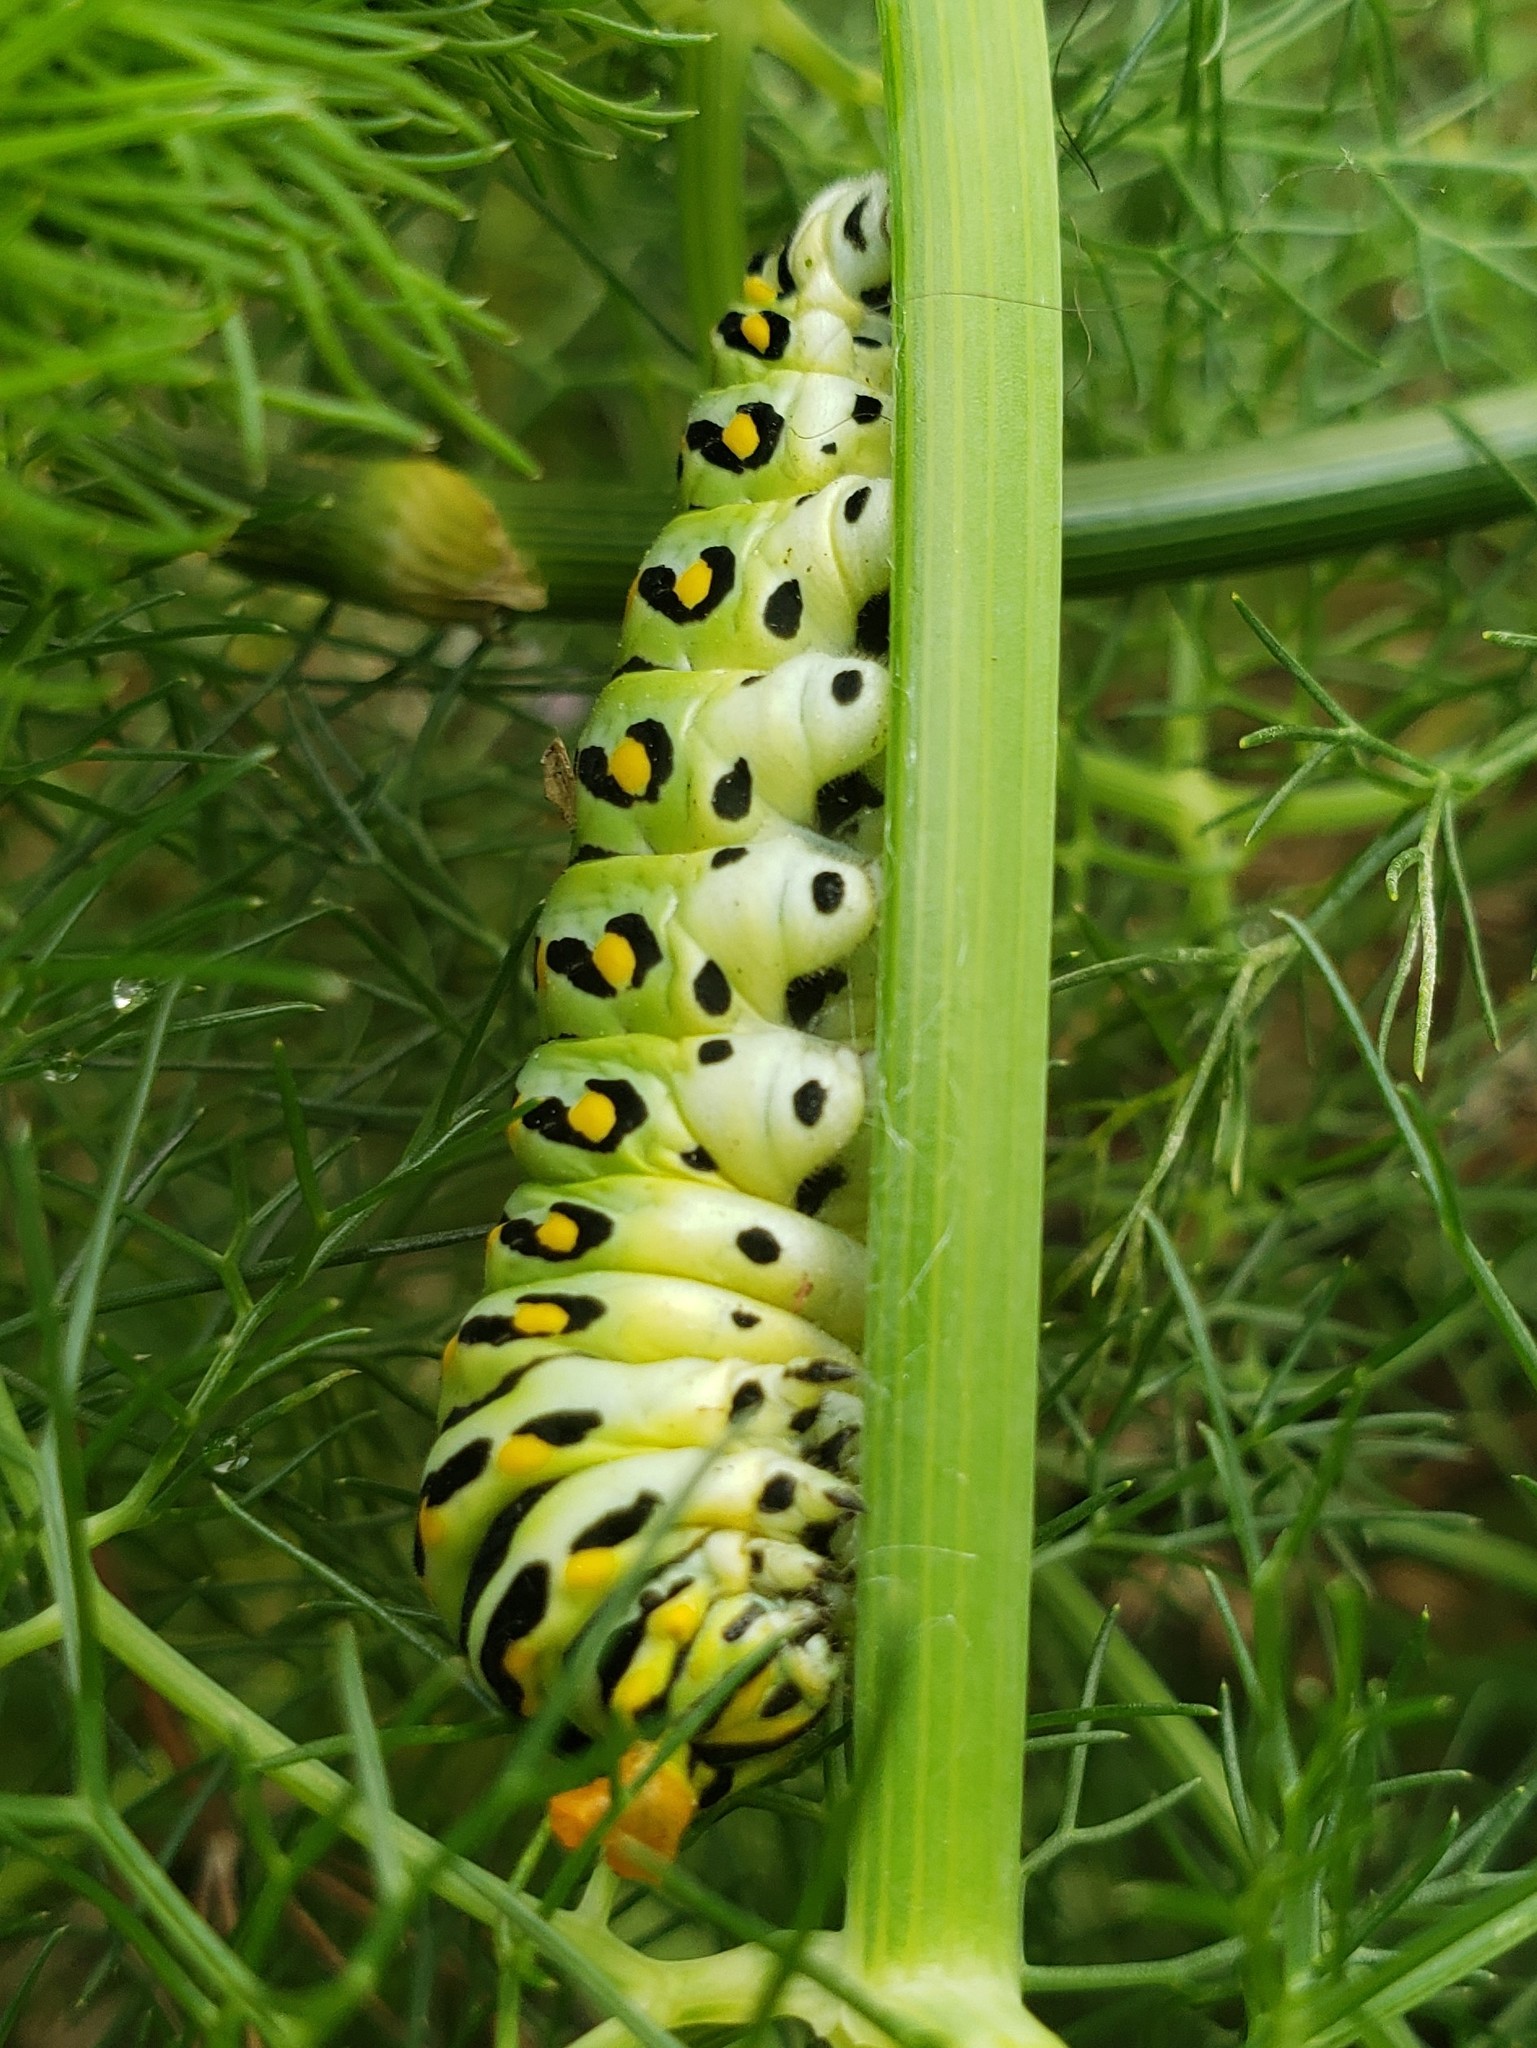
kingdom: Animalia
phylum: Arthropoda
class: Insecta
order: Lepidoptera
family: Papilionidae
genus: Papilio
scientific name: Papilio polyxenes
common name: Black swallowtail
